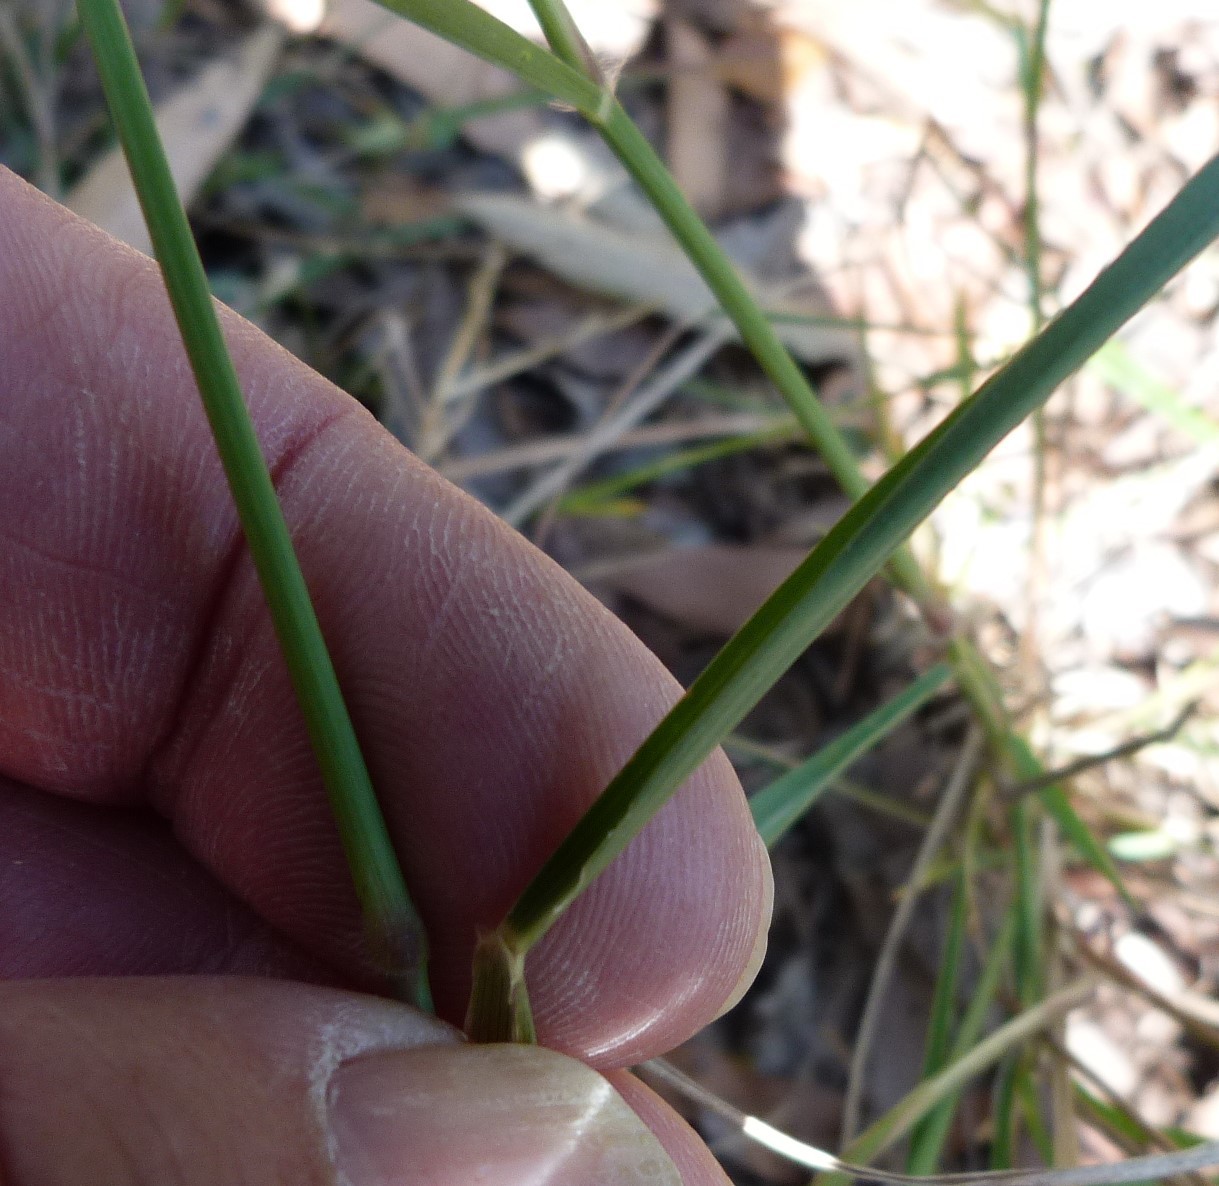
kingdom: Plantae
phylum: Tracheophyta
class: Liliopsida
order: Poales
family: Poaceae
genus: Melinis
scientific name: Melinis repens
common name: Rose natal grass
